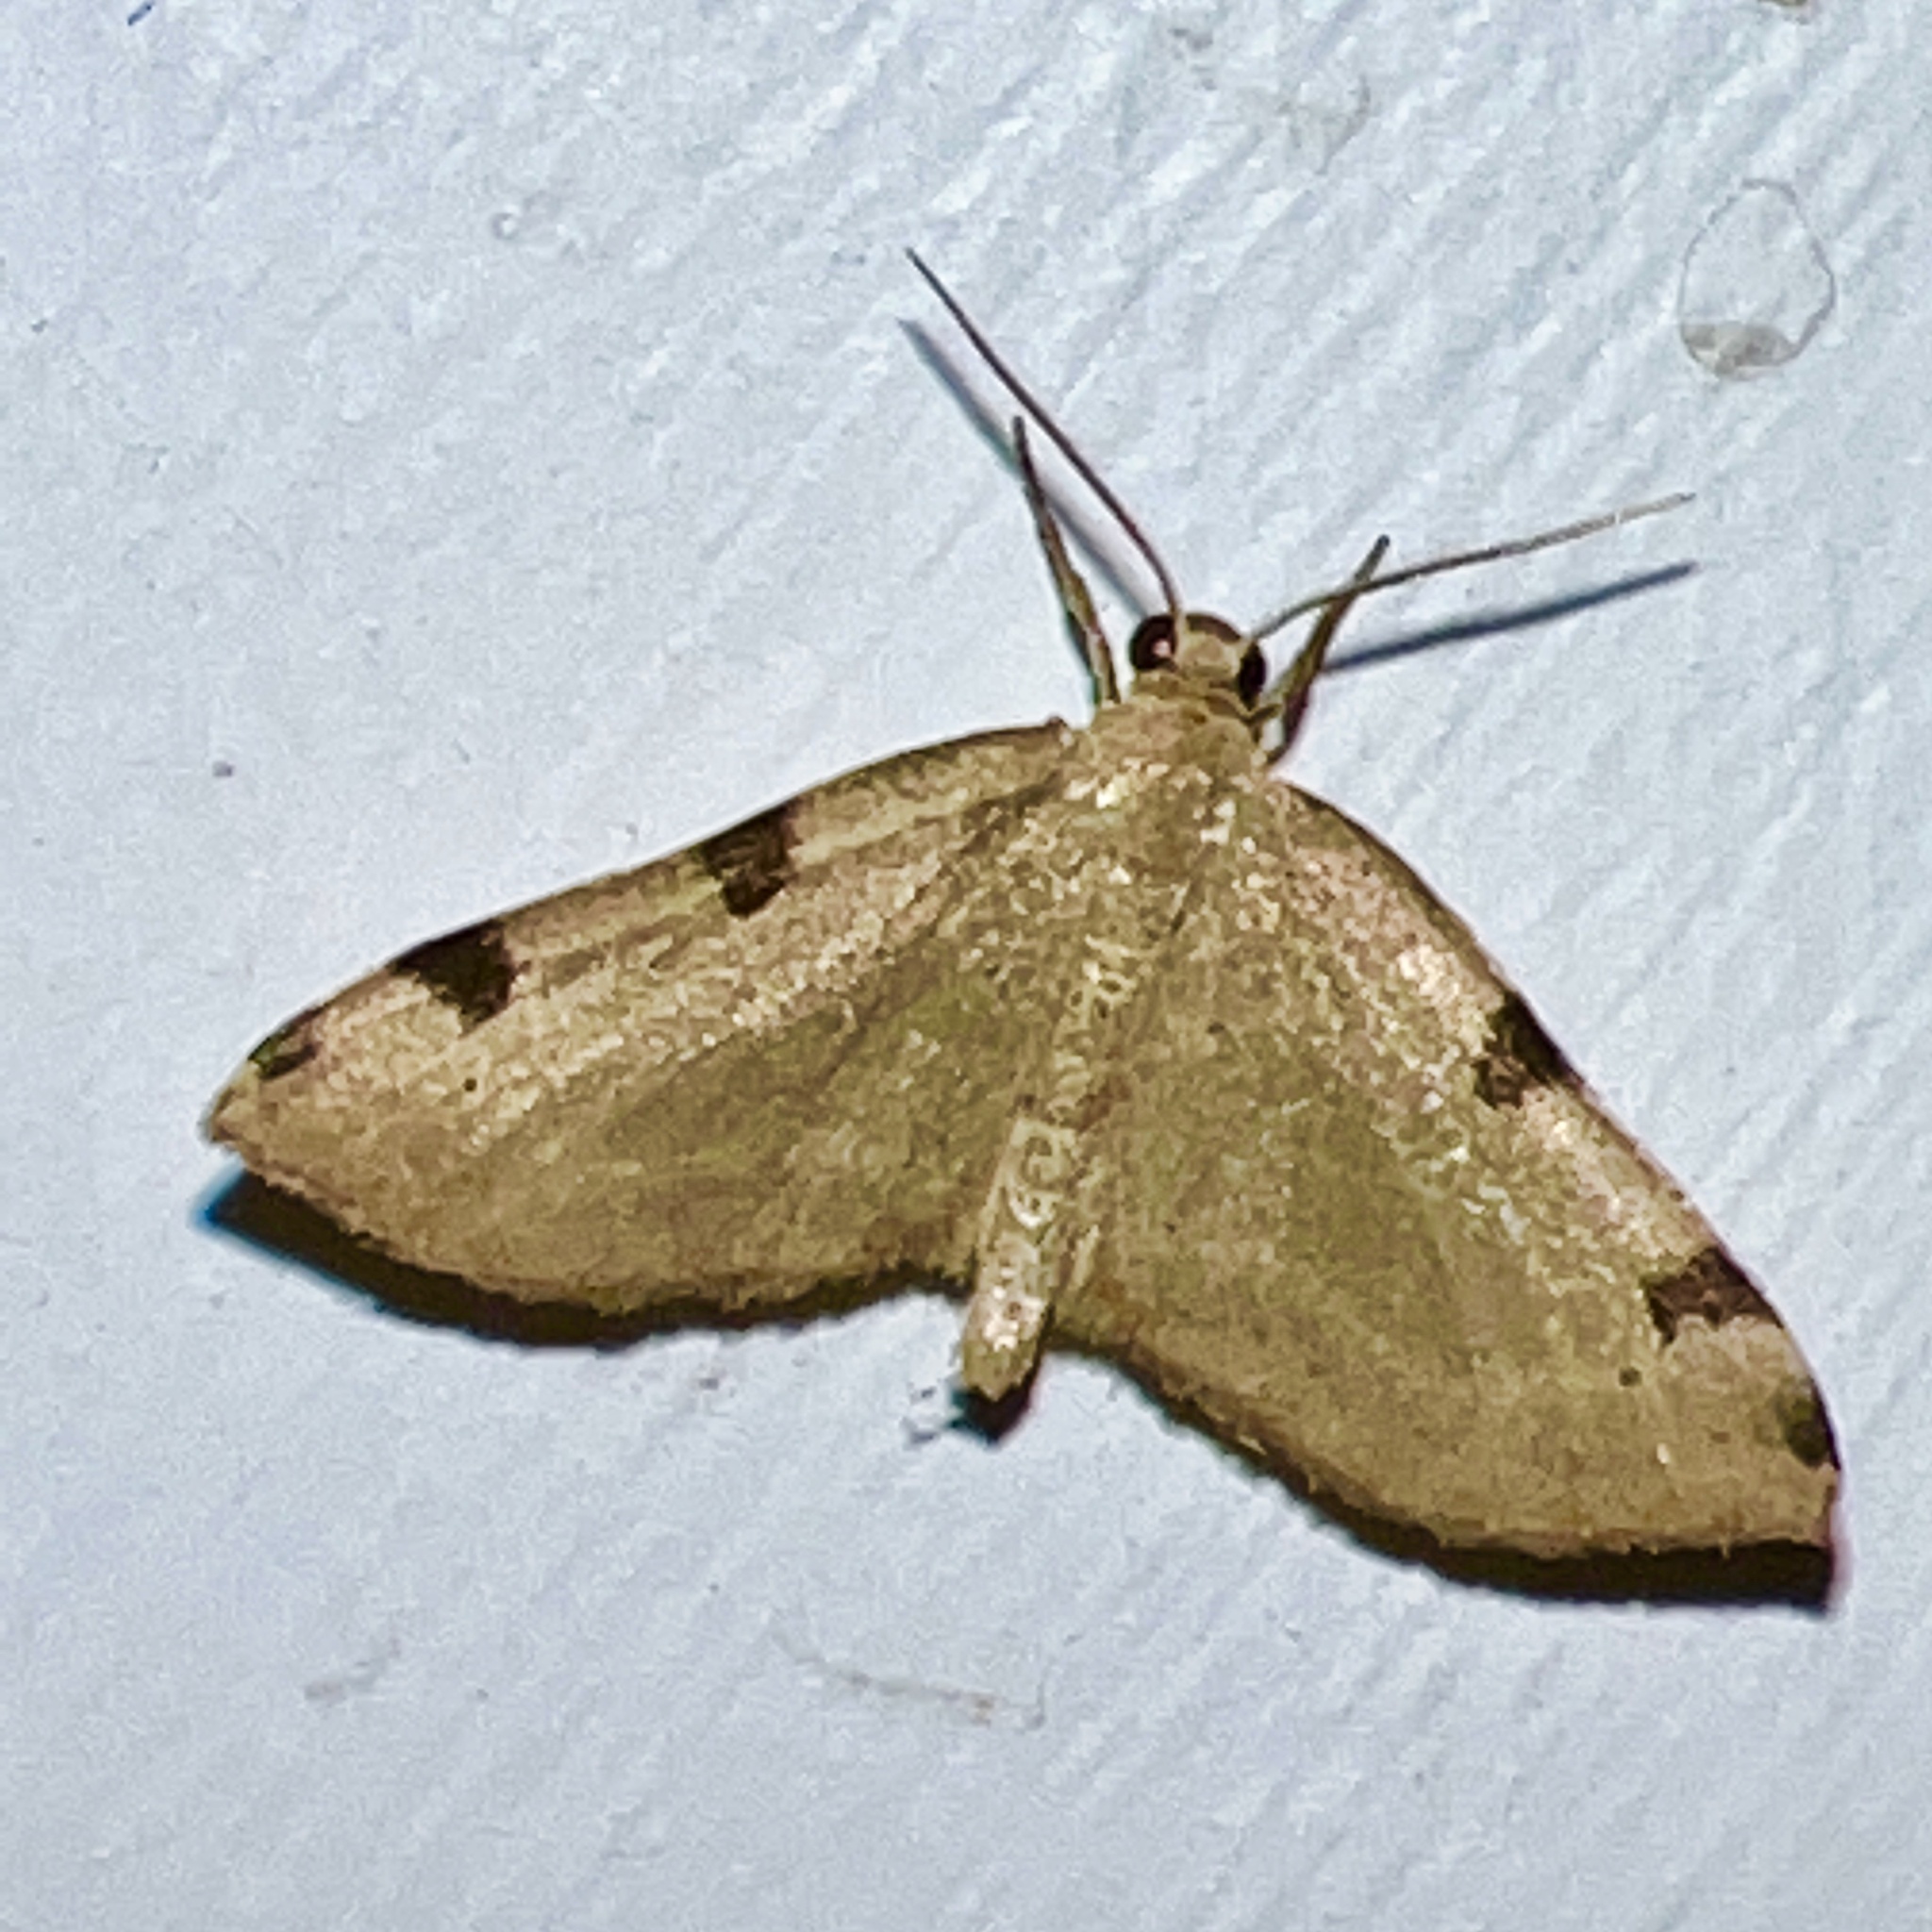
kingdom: Animalia
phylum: Arthropoda
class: Insecta
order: Lepidoptera
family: Geometridae
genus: Heterophleps
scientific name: Heterophleps triguttaria
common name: Three-spotted fillip
